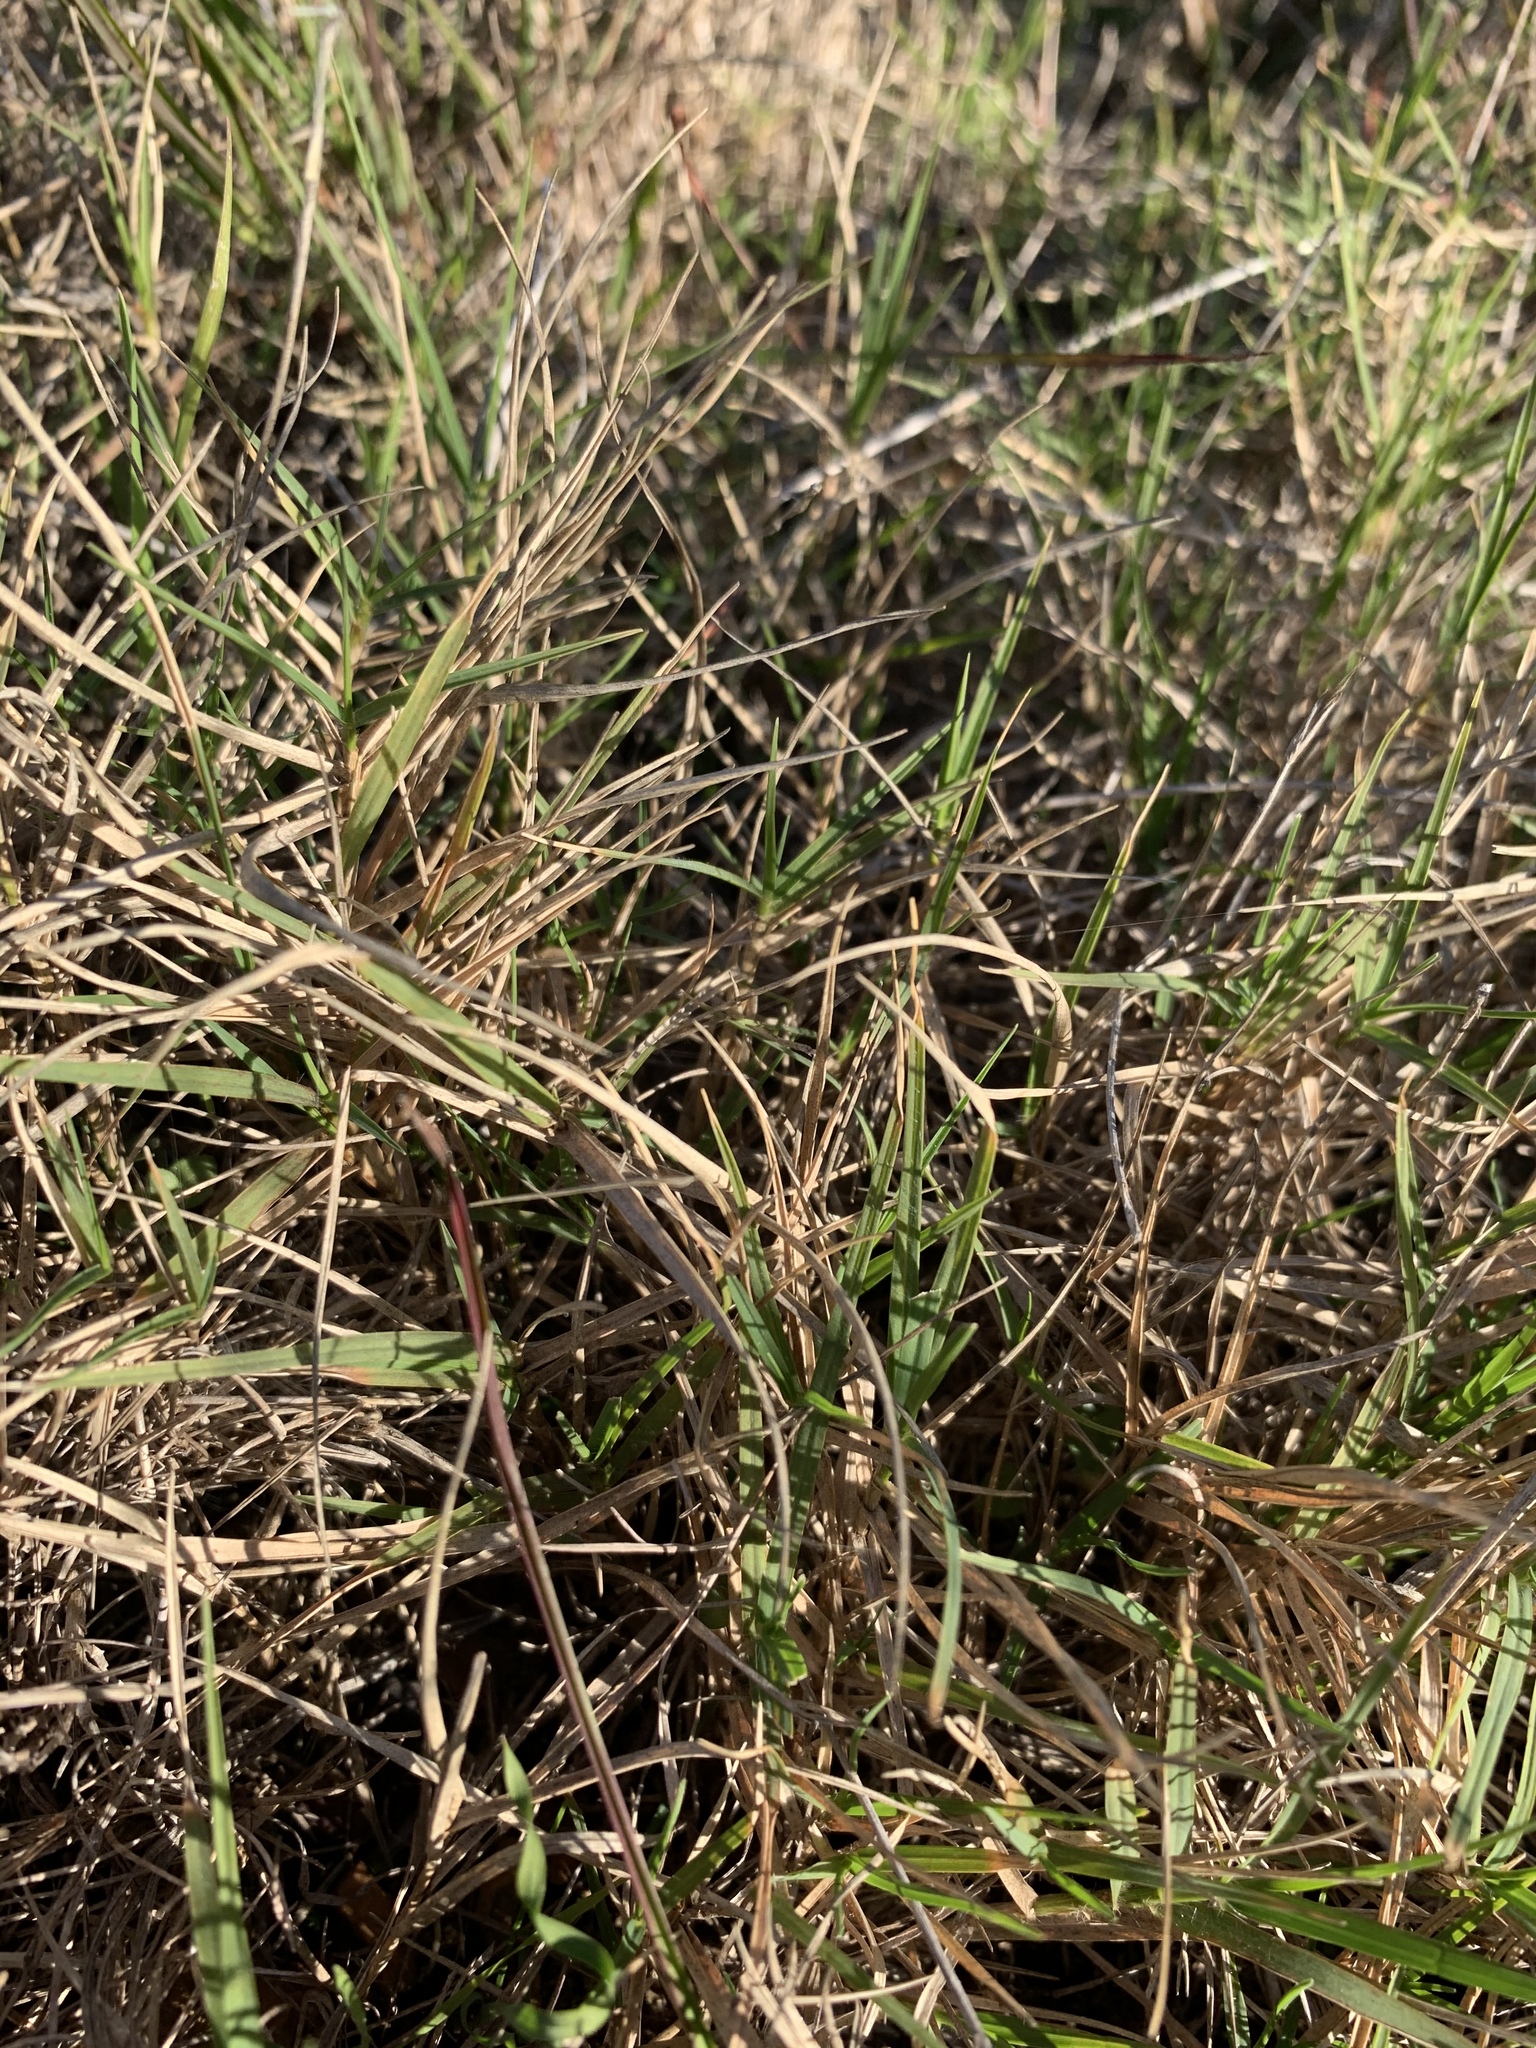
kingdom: Plantae
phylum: Tracheophyta
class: Liliopsida
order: Poales
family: Poaceae
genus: Cynodon
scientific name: Cynodon dactylon
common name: Bermuda grass
